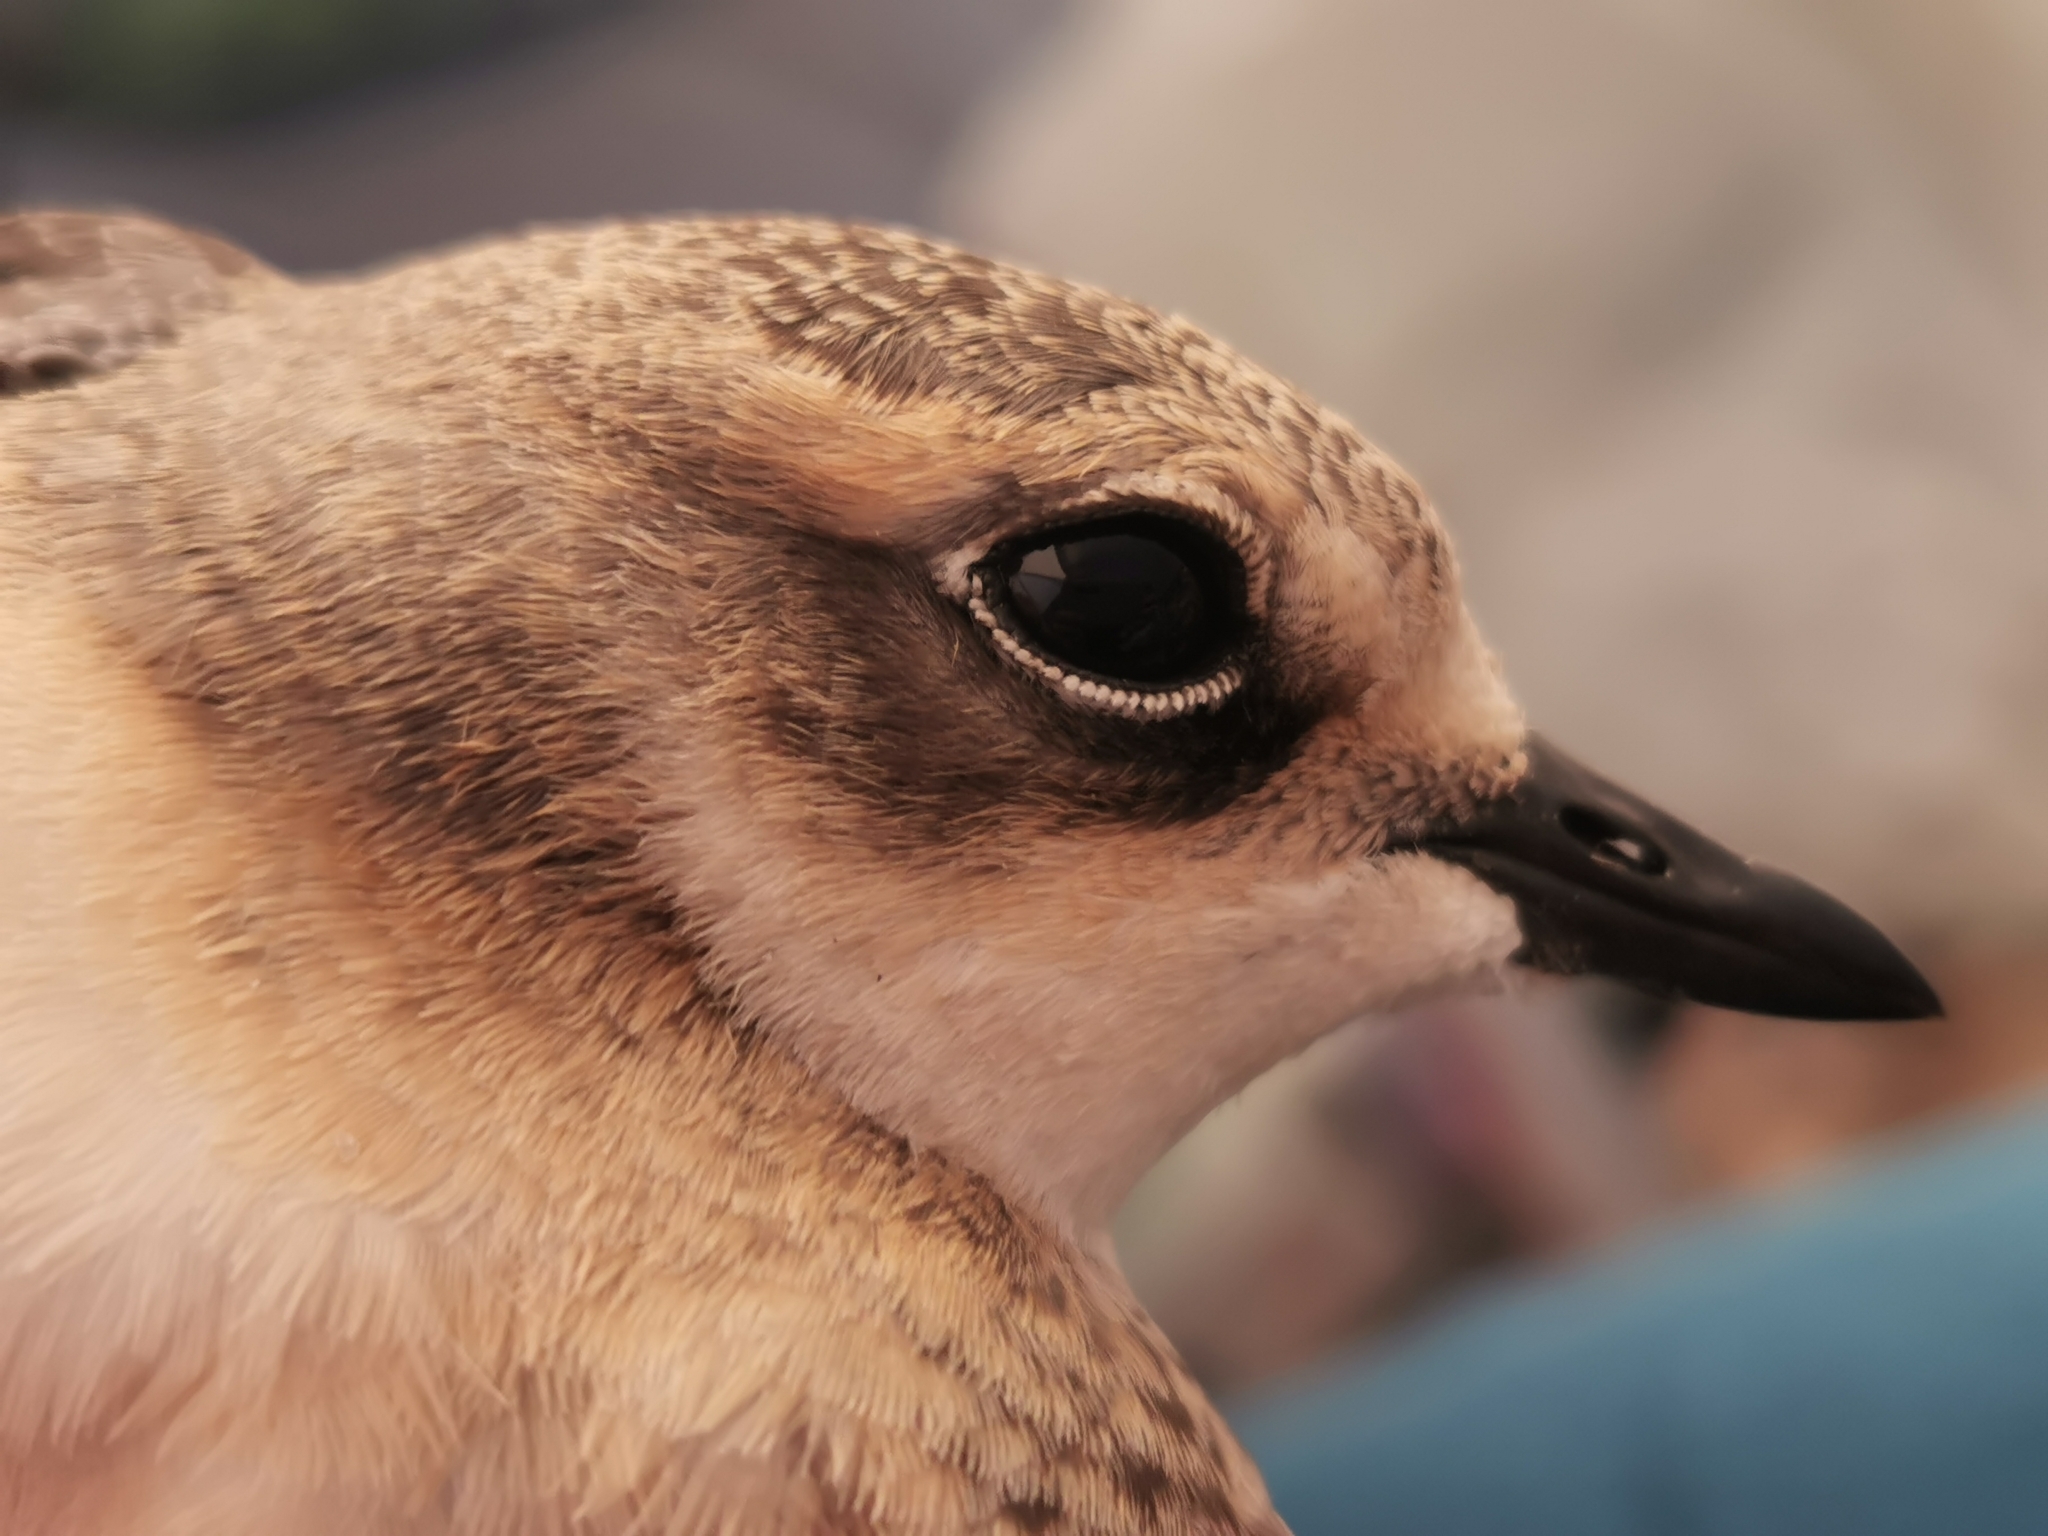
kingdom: Animalia
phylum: Chordata
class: Aves
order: Charadriiformes
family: Charadriidae
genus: Anarhynchus
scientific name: Anarhynchus
